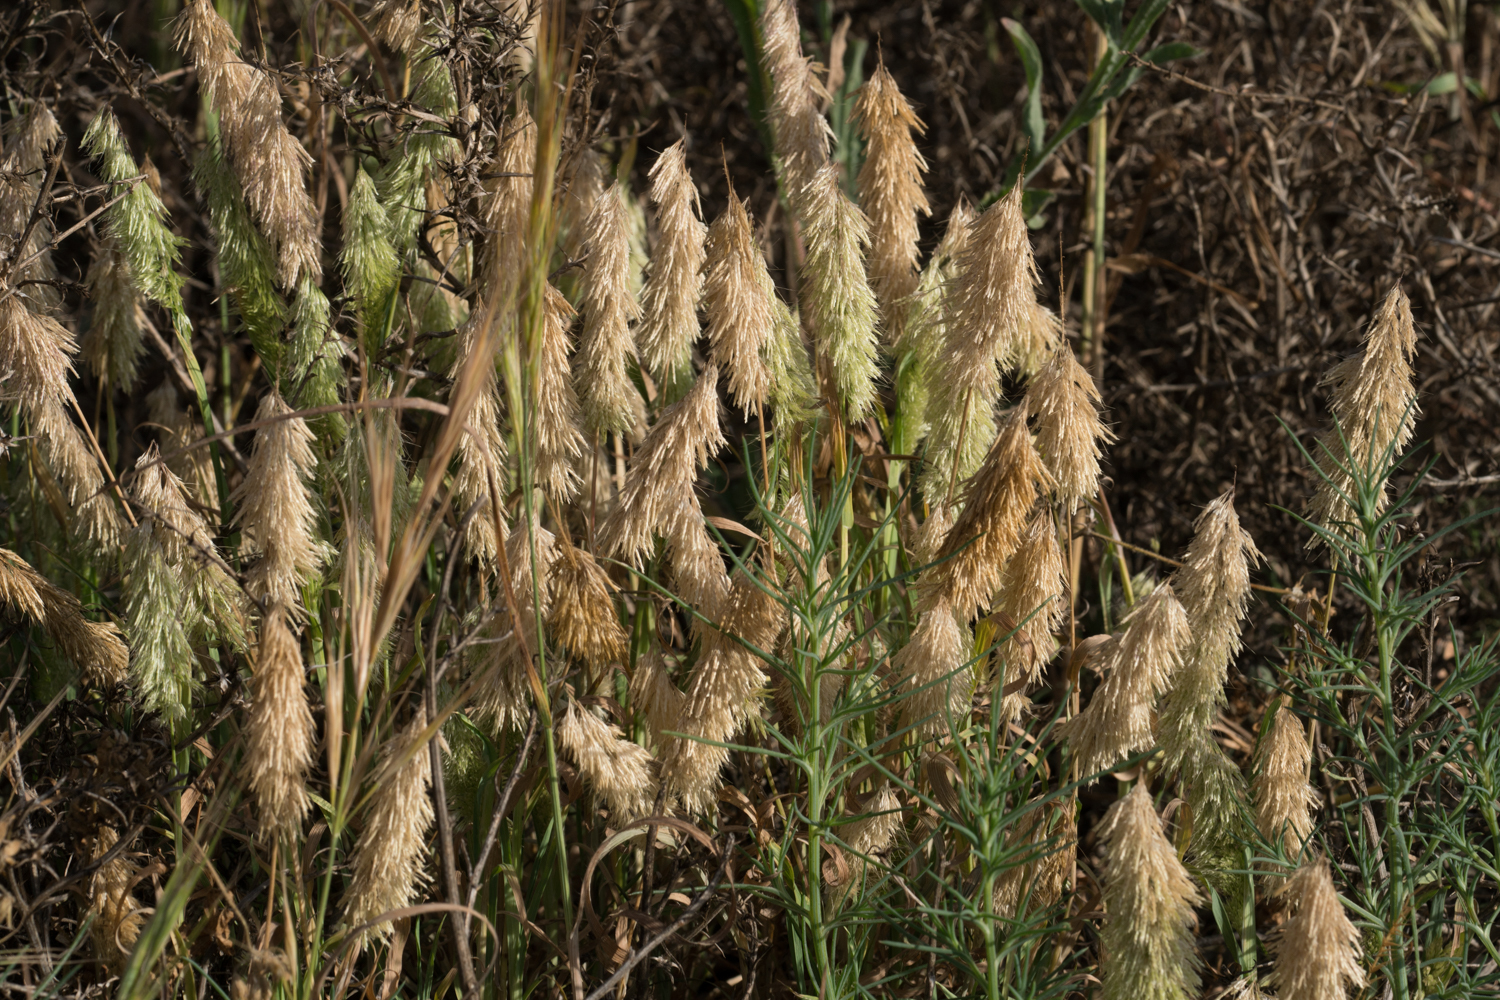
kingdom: Plantae
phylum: Tracheophyta
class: Liliopsida
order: Poales
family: Poaceae
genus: Lamarckia
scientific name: Lamarckia aurea
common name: Golden dog's-tail
